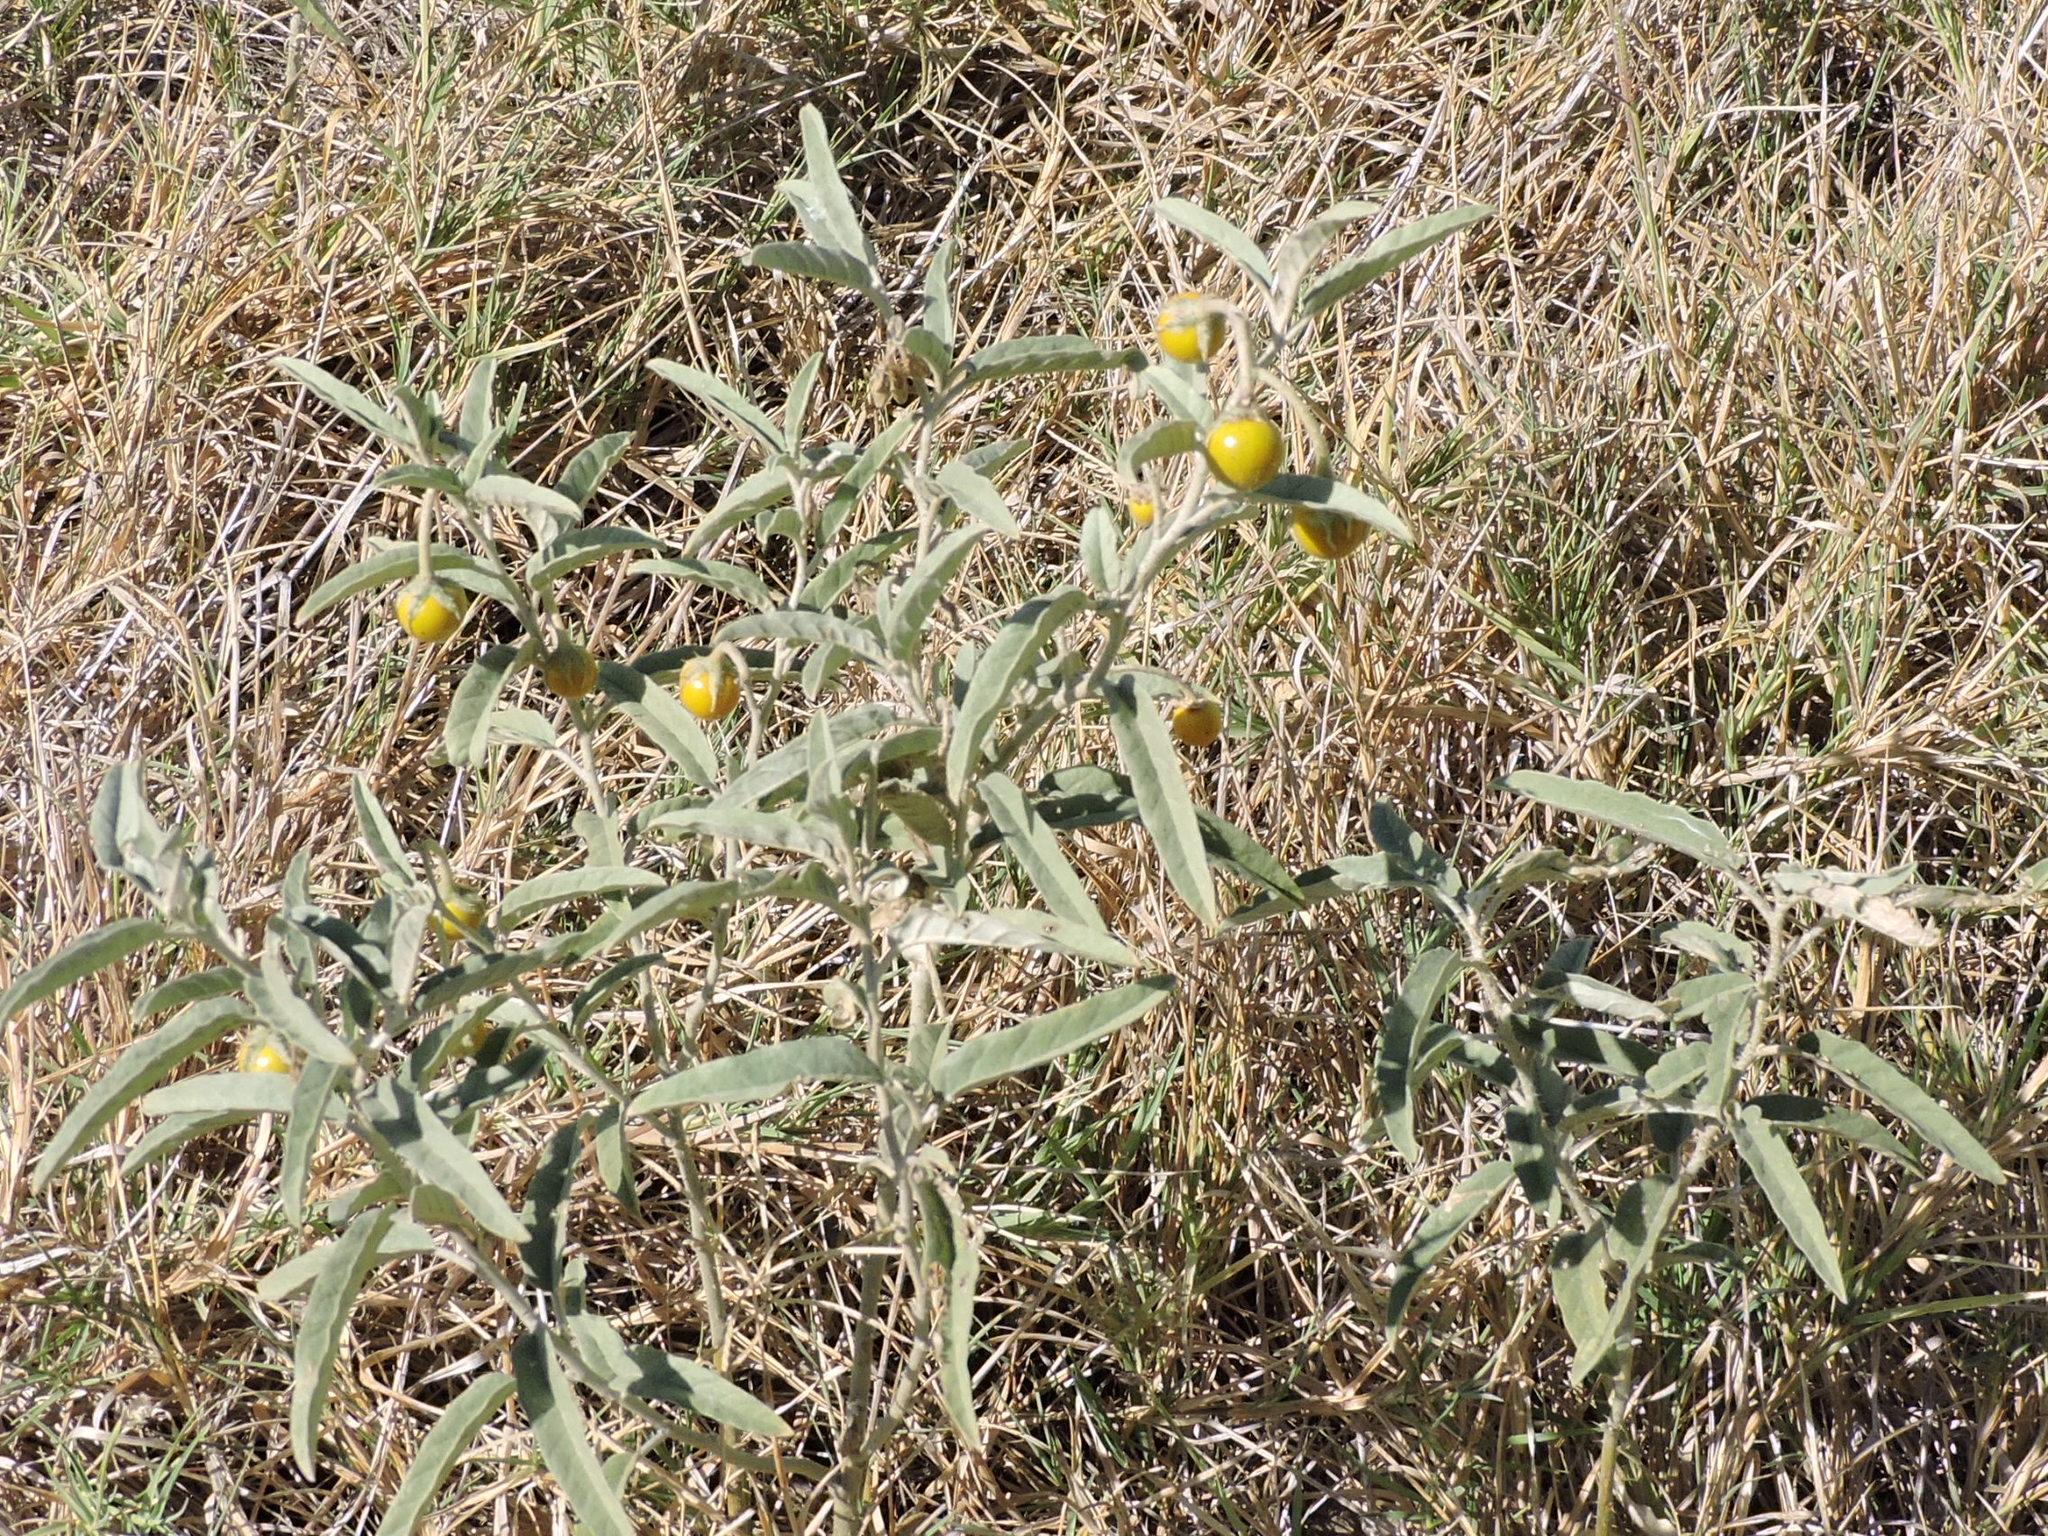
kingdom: Plantae
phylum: Tracheophyta
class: Magnoliopsida
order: Solanales
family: Solanaceae
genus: Solanum
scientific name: Solanum elaeagnifolium
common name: Silverleaf nightshade
